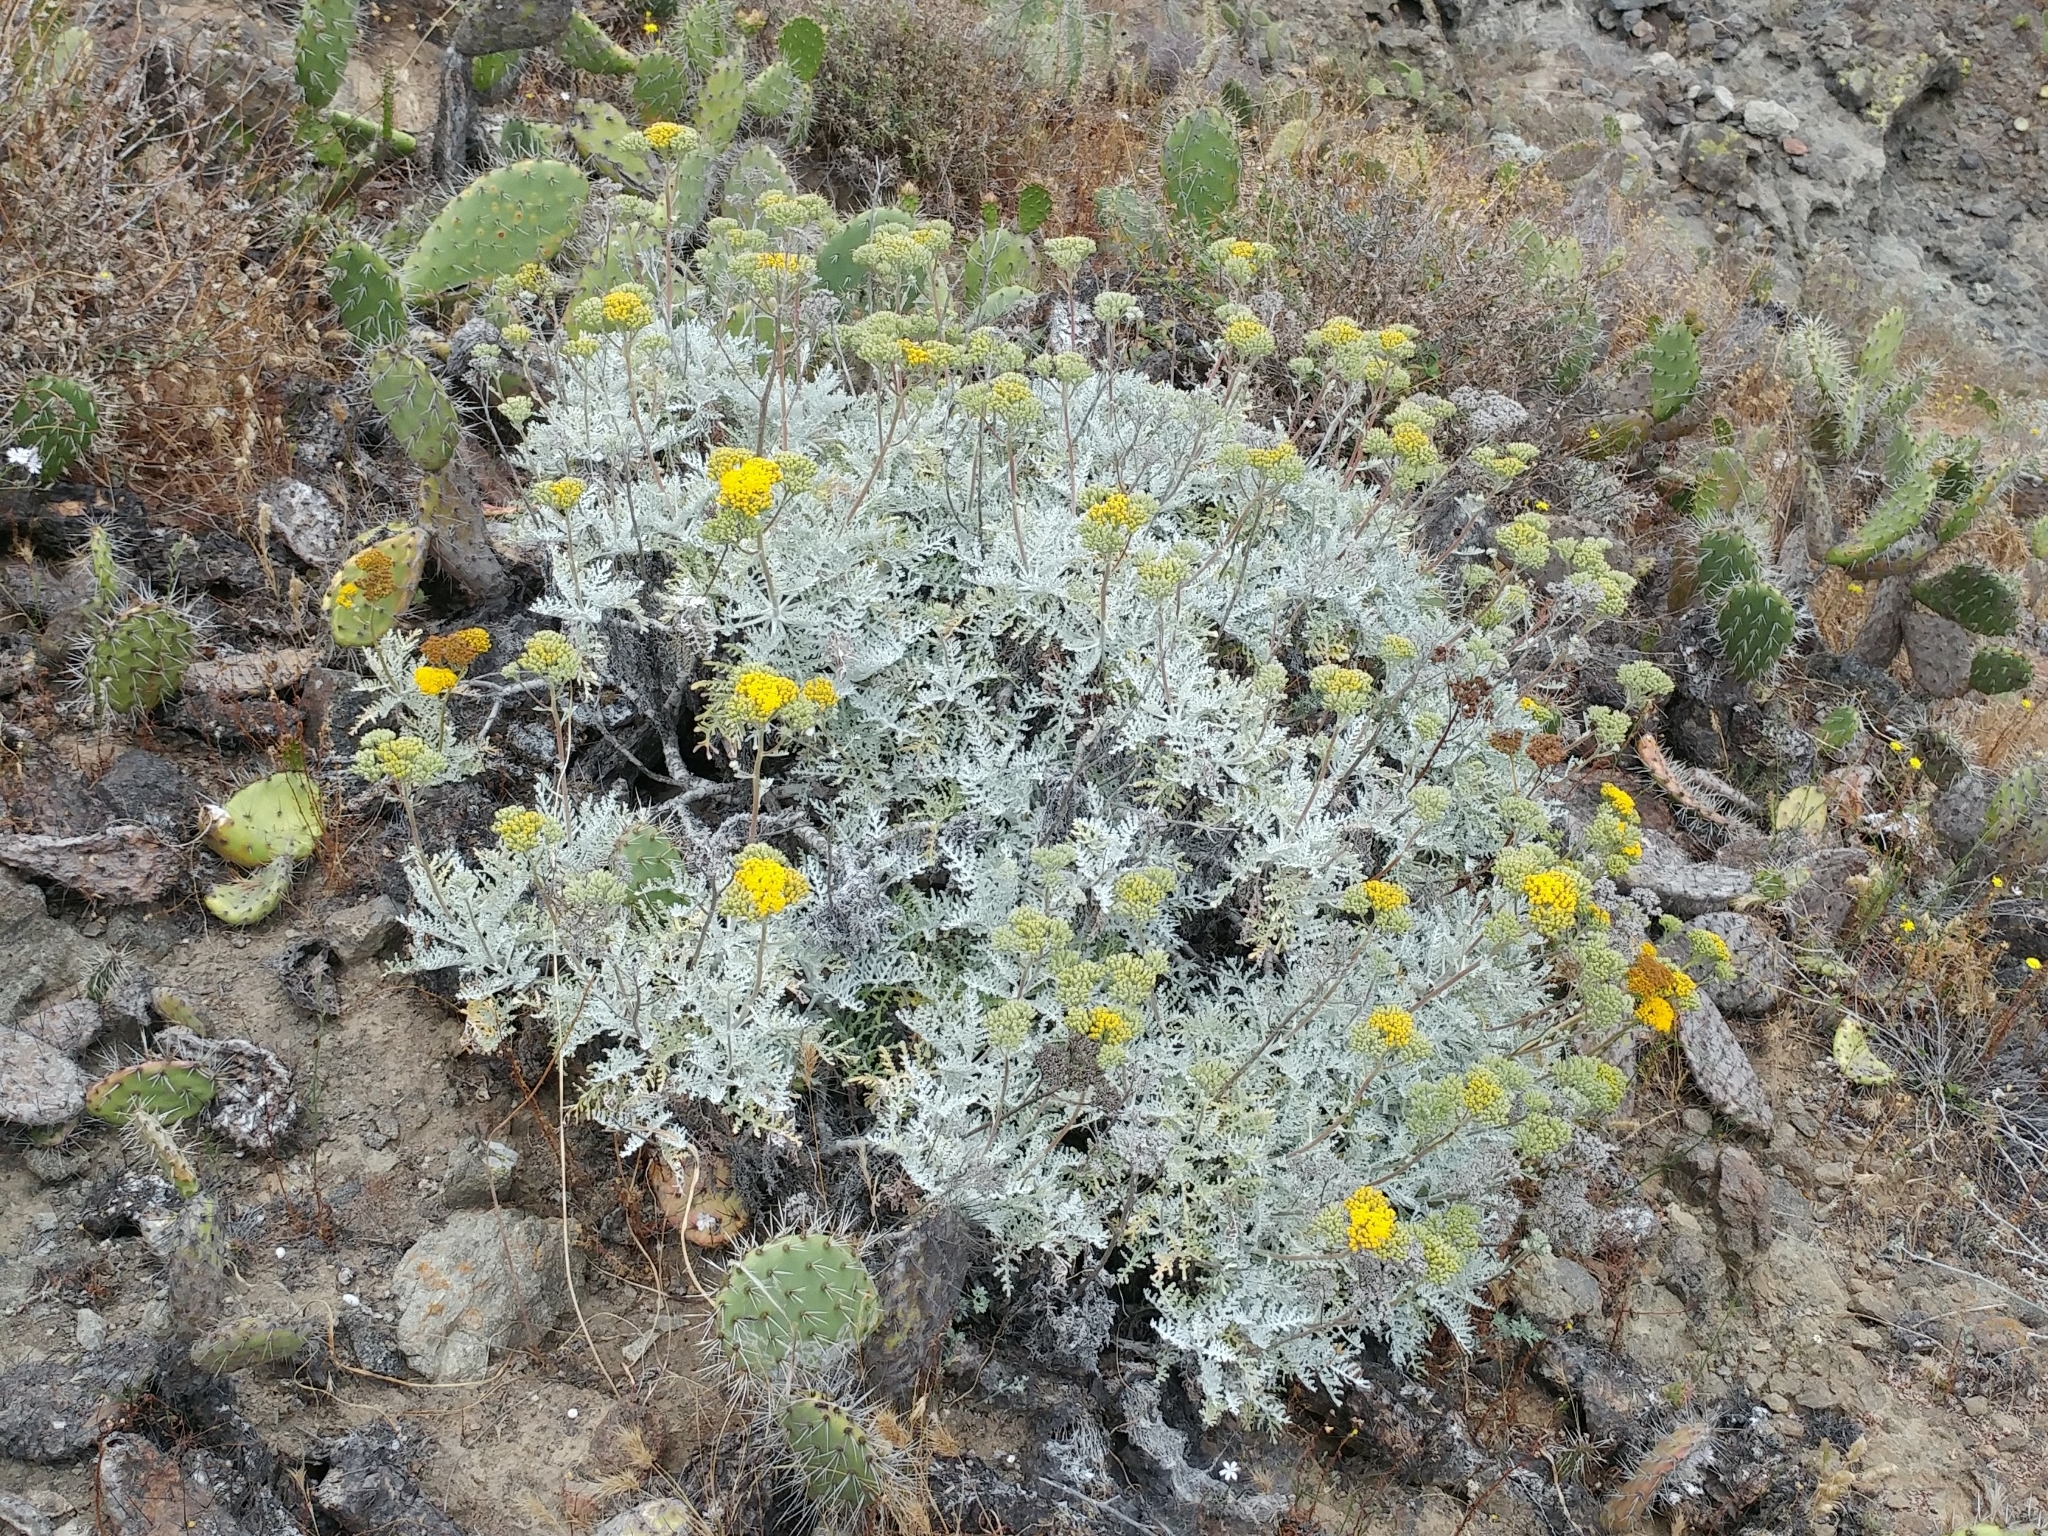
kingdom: Plantae
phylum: Tracheophyta
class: Magnoliopsida
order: Asterales
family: Asteraceae
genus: Constancea
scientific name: Constancea nevinii
